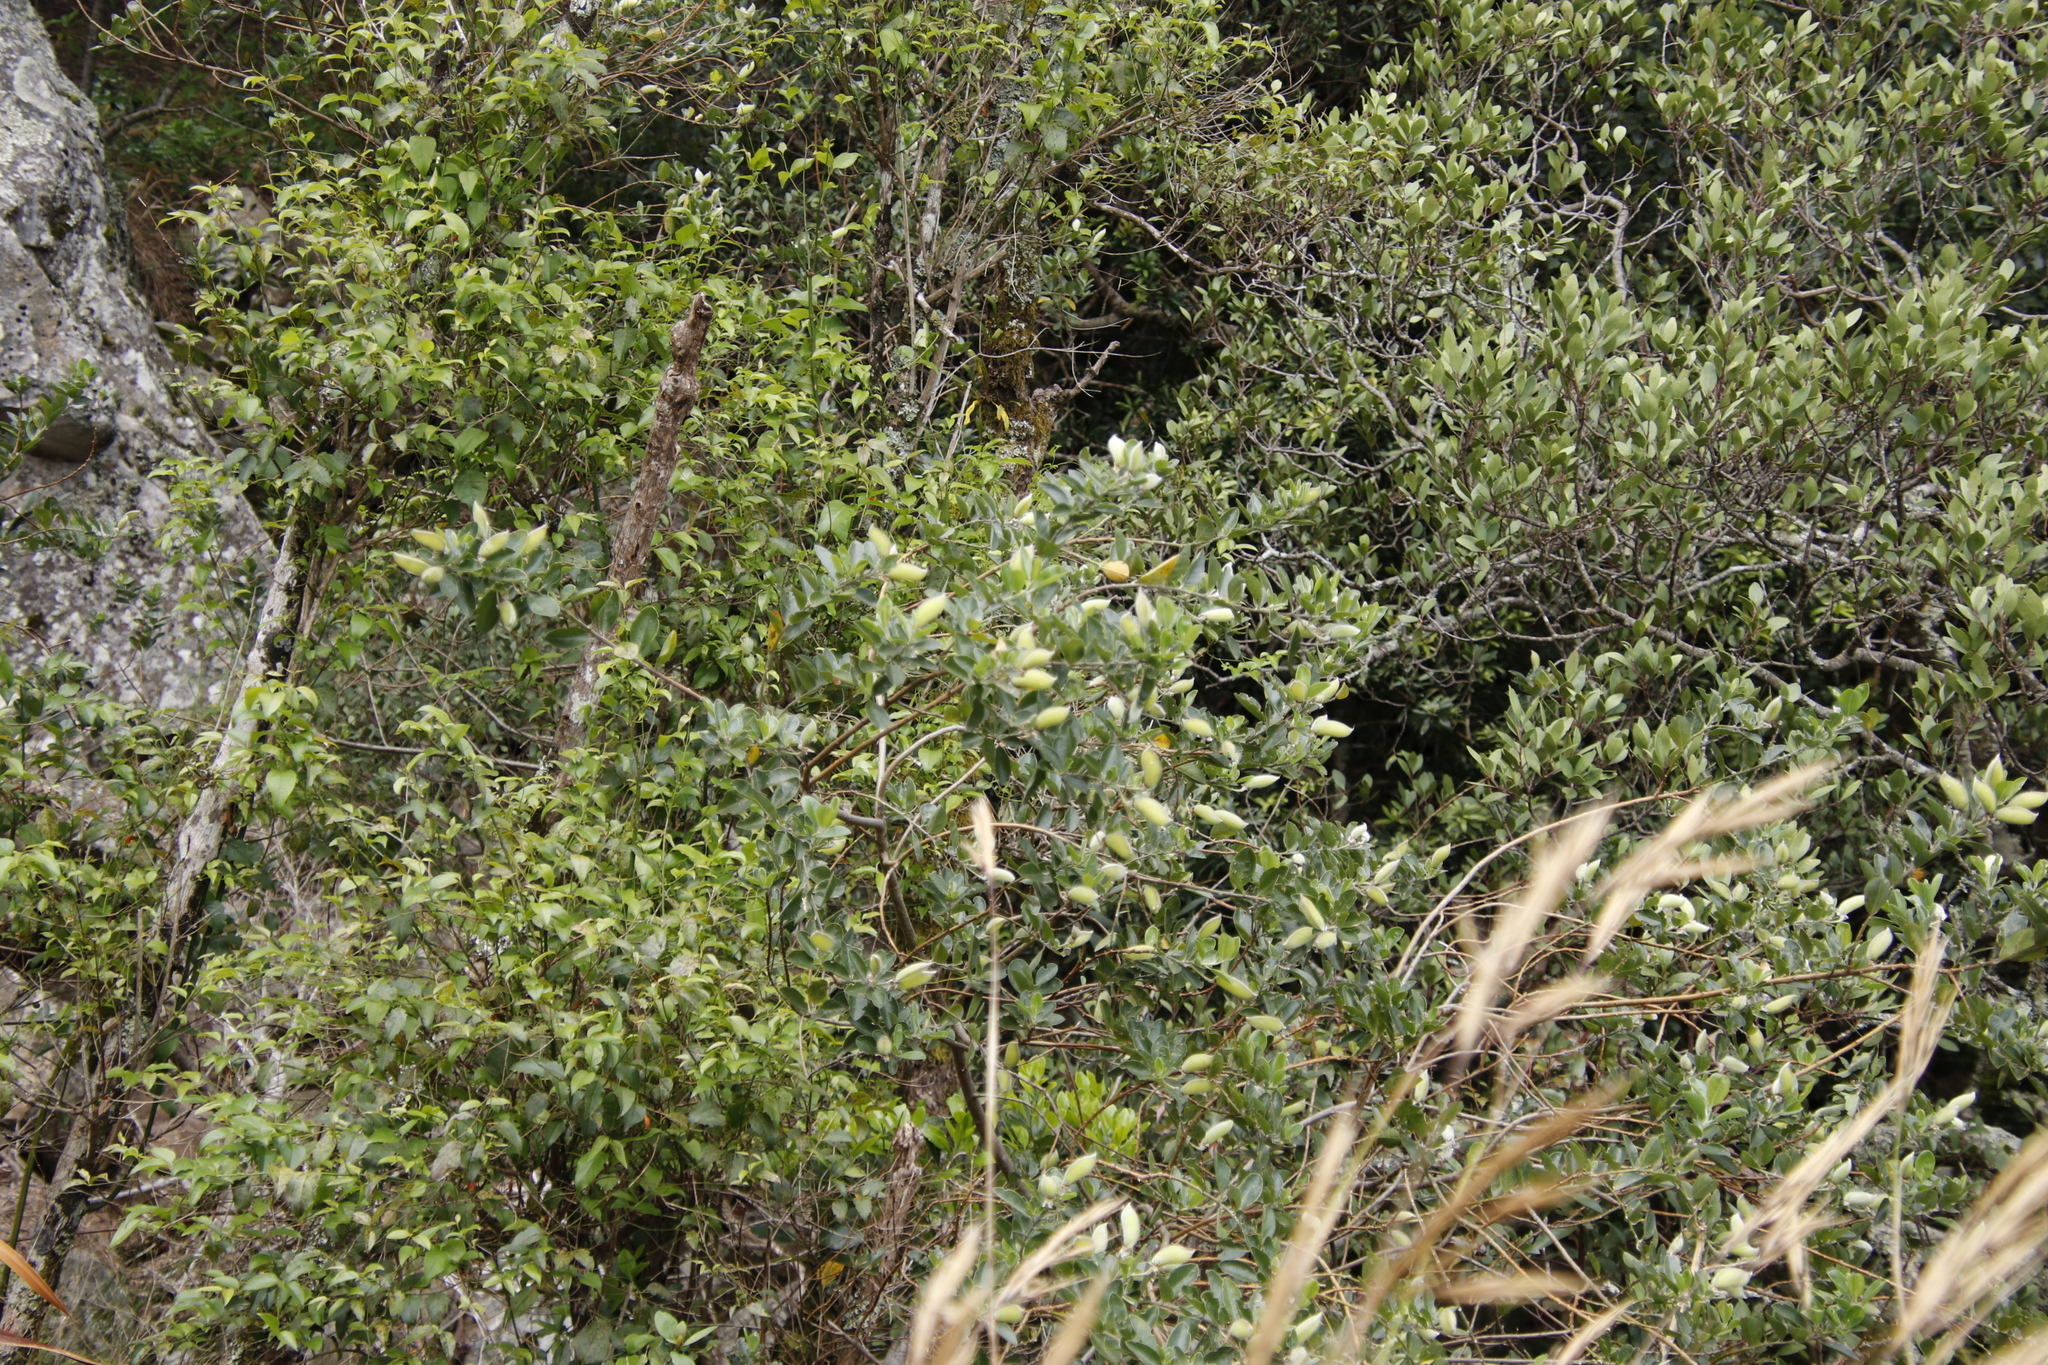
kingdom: Plantae
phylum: Tracheophyta
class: Magnoliopsida
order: Fabales
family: Fabaceae
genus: Podalyria
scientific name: Podalyria calyptrata
